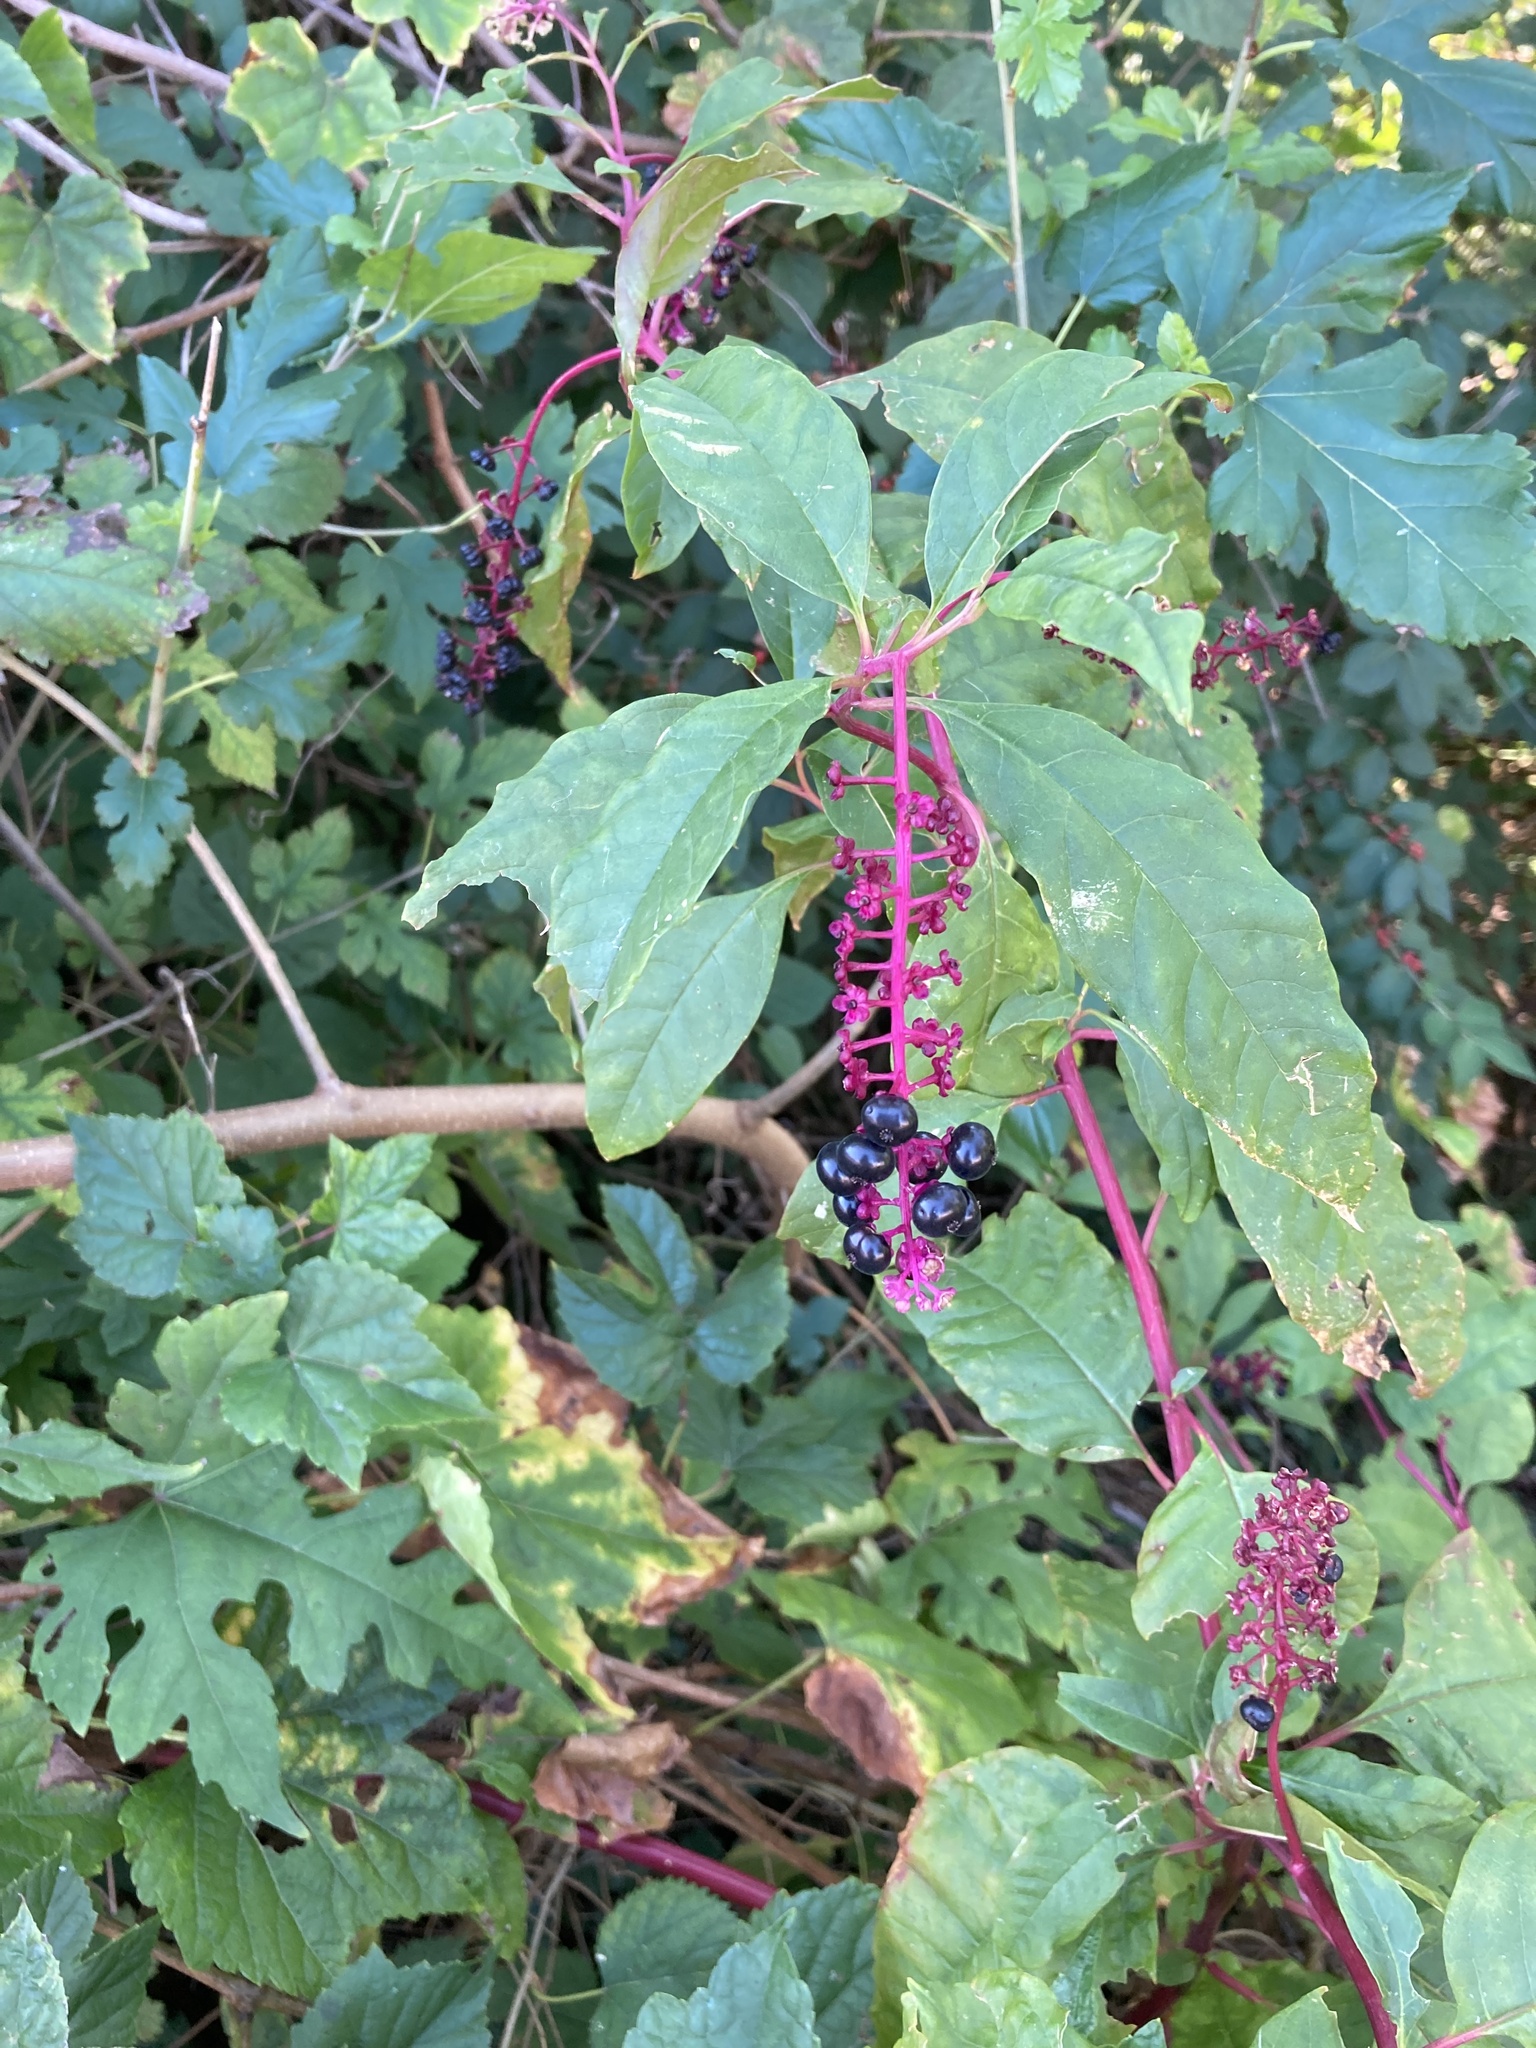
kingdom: Plantae
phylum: Tracheophyta
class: Magnoliopsida
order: Caryophyllales
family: Phytolaccaceae
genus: Phytolacca
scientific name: Phytolacca americana
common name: American pokeweed
